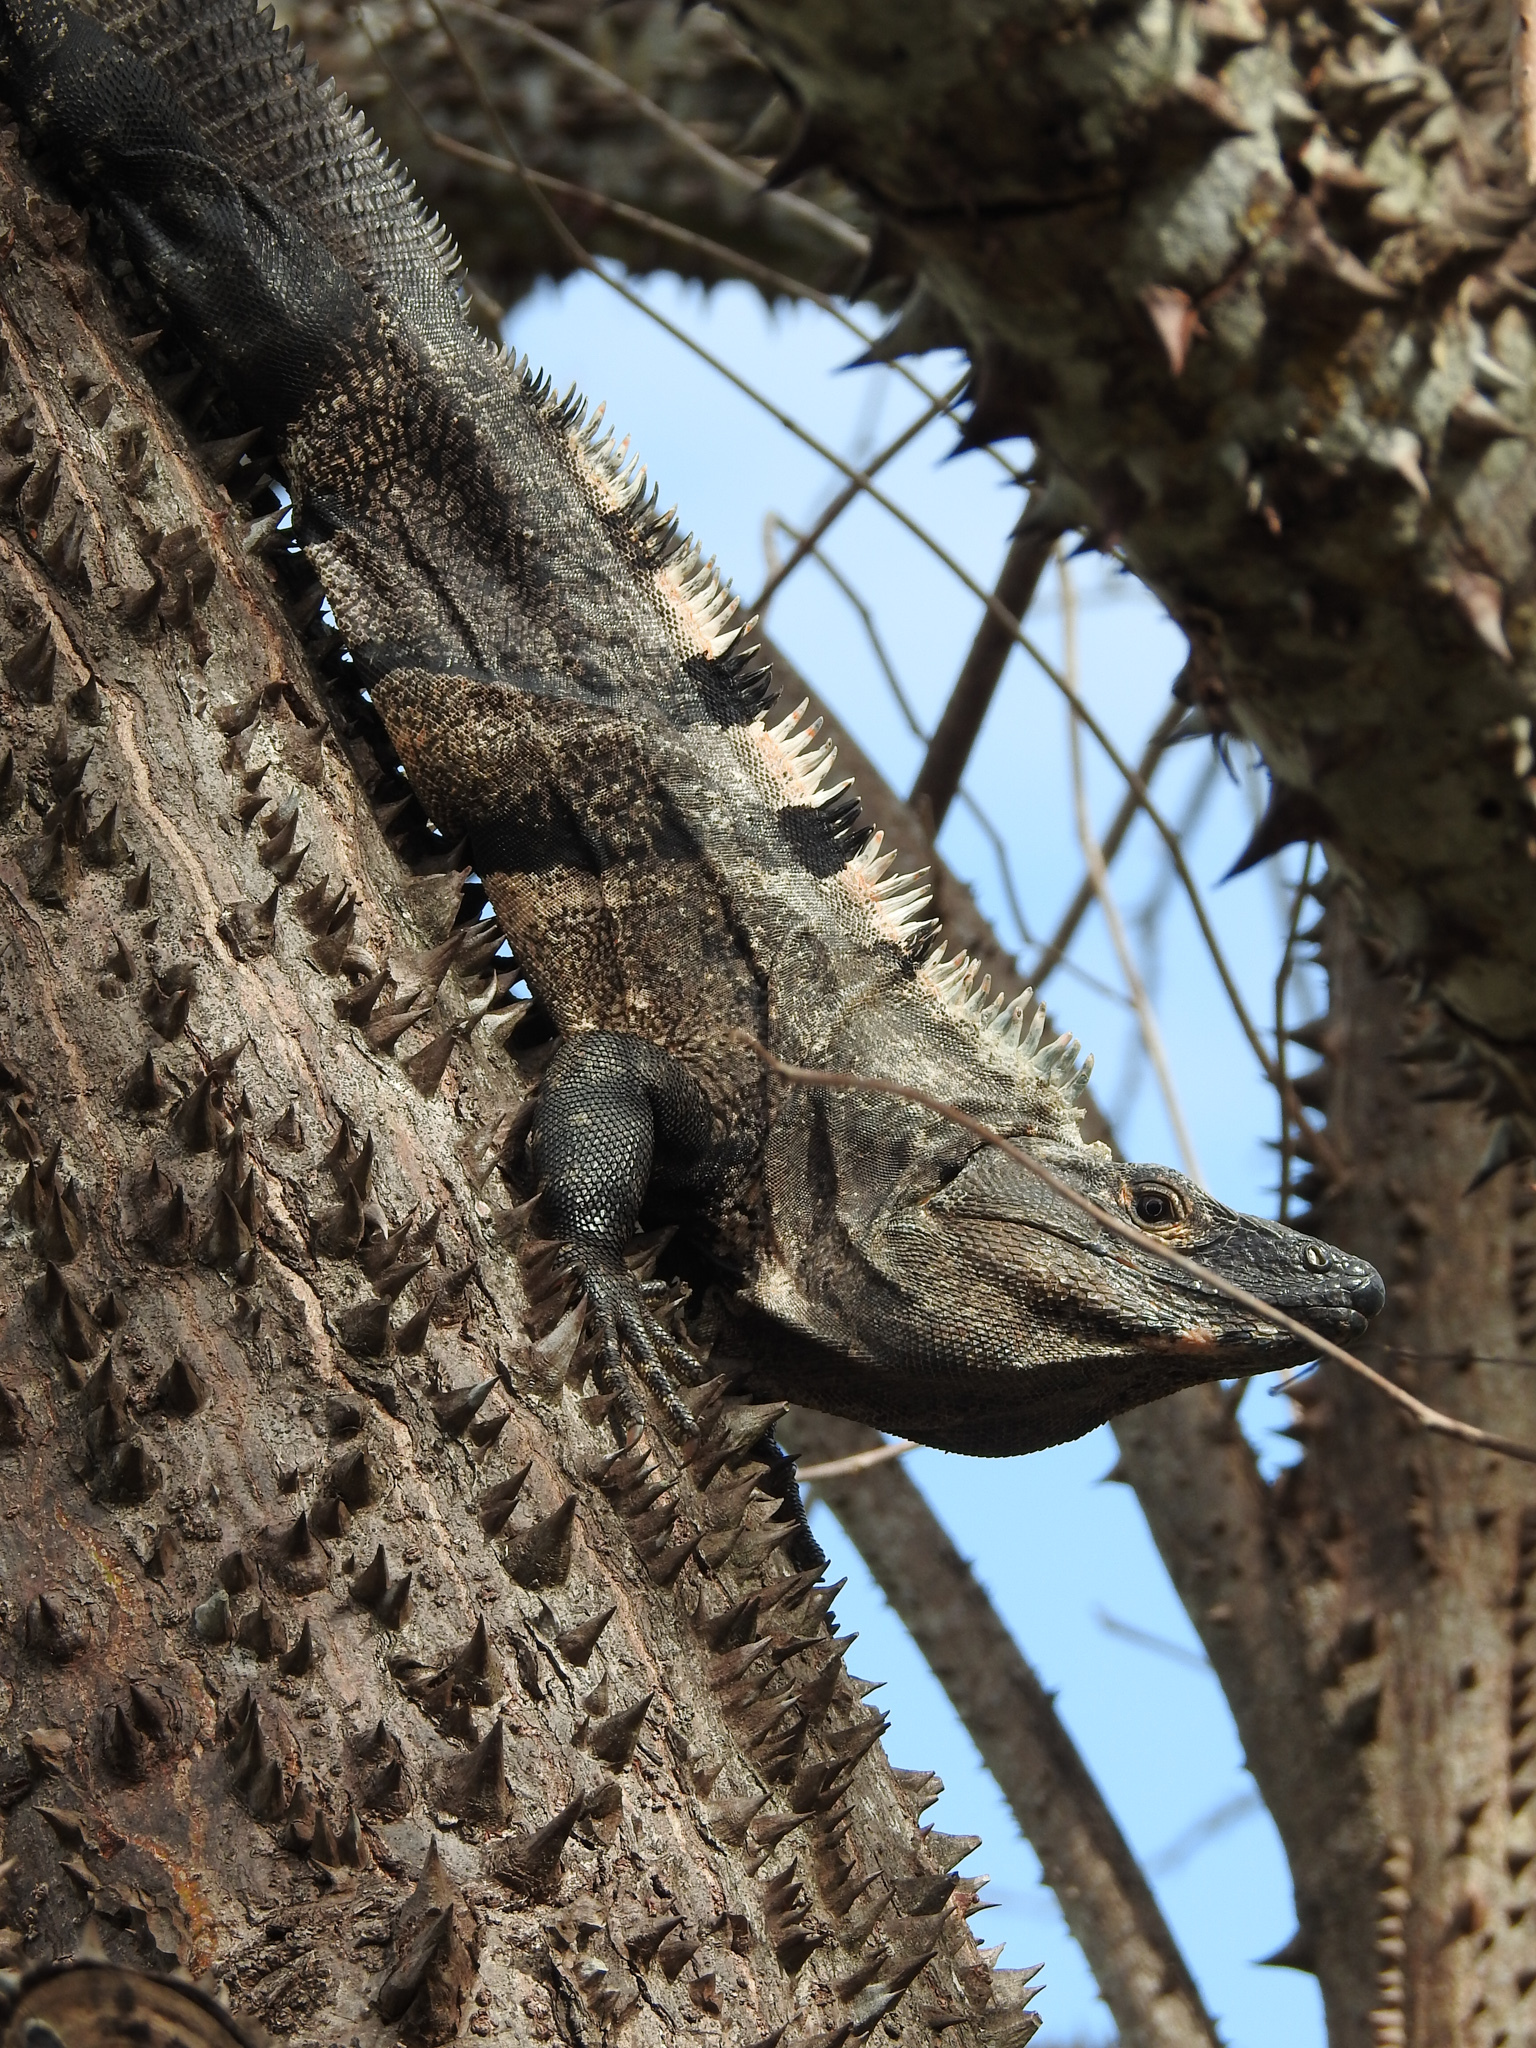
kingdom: Animalia
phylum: Chordata
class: Squamata
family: Iguanidae
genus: Ctenosaura
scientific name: Ctenosaura similis
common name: Black spiny-tailed iguana
